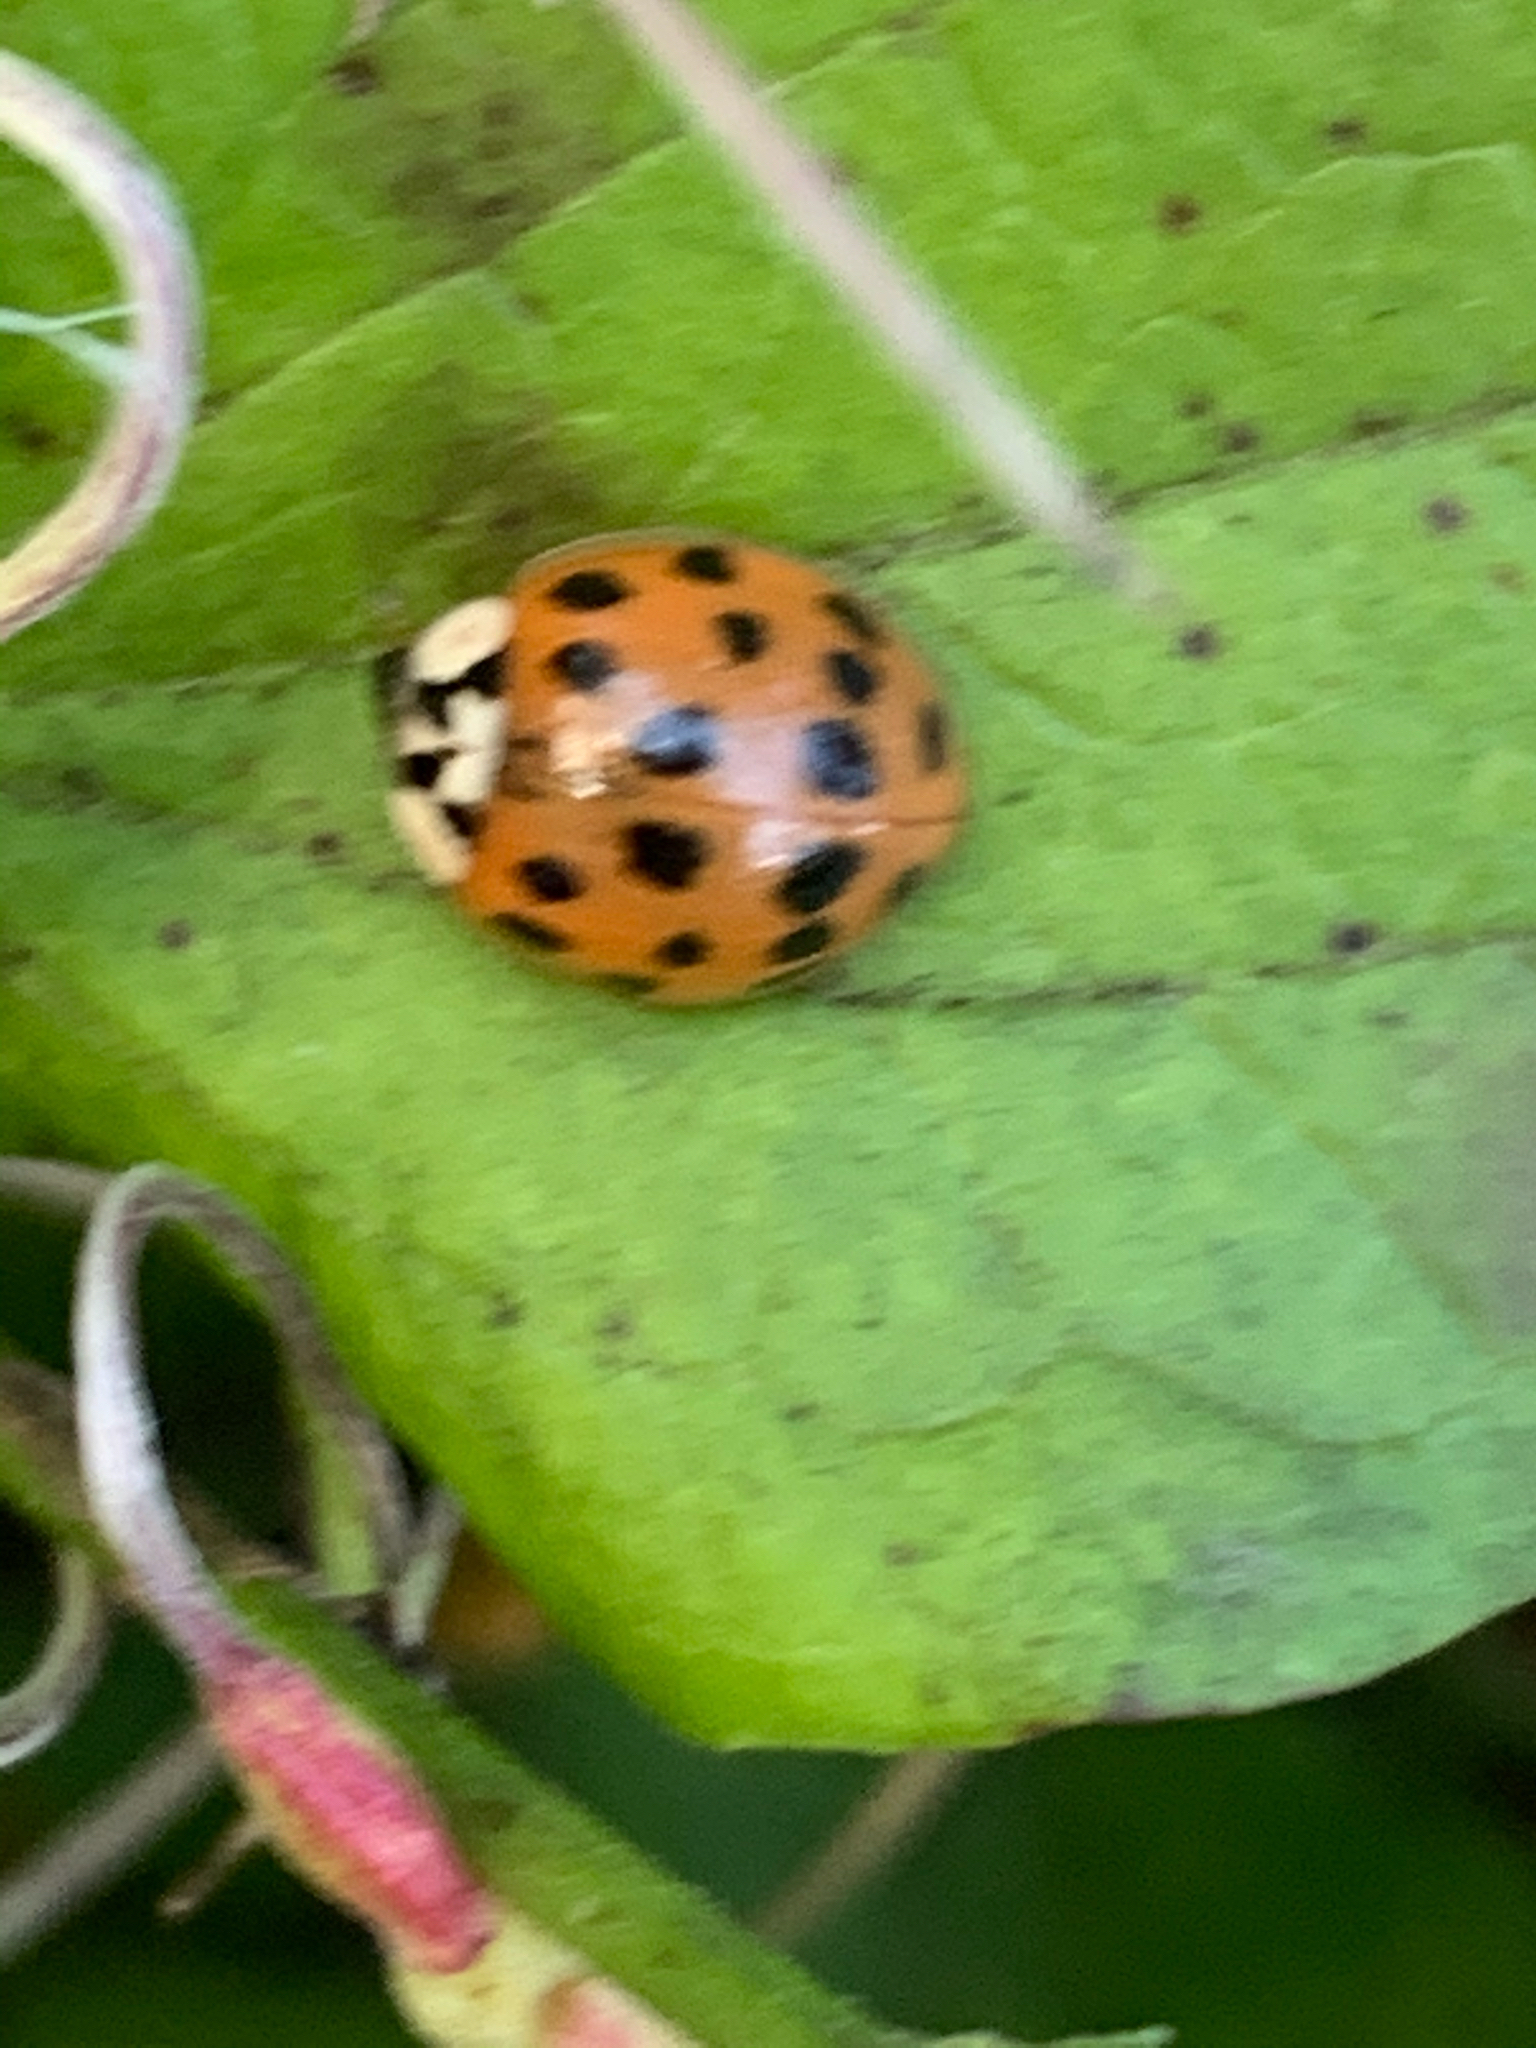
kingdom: Animalia
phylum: Arthropoda
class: Insecta
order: Coleoptera
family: Coccinellidae
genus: Harmonia
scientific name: Harmonia axyridis
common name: Harlequin ladybird
